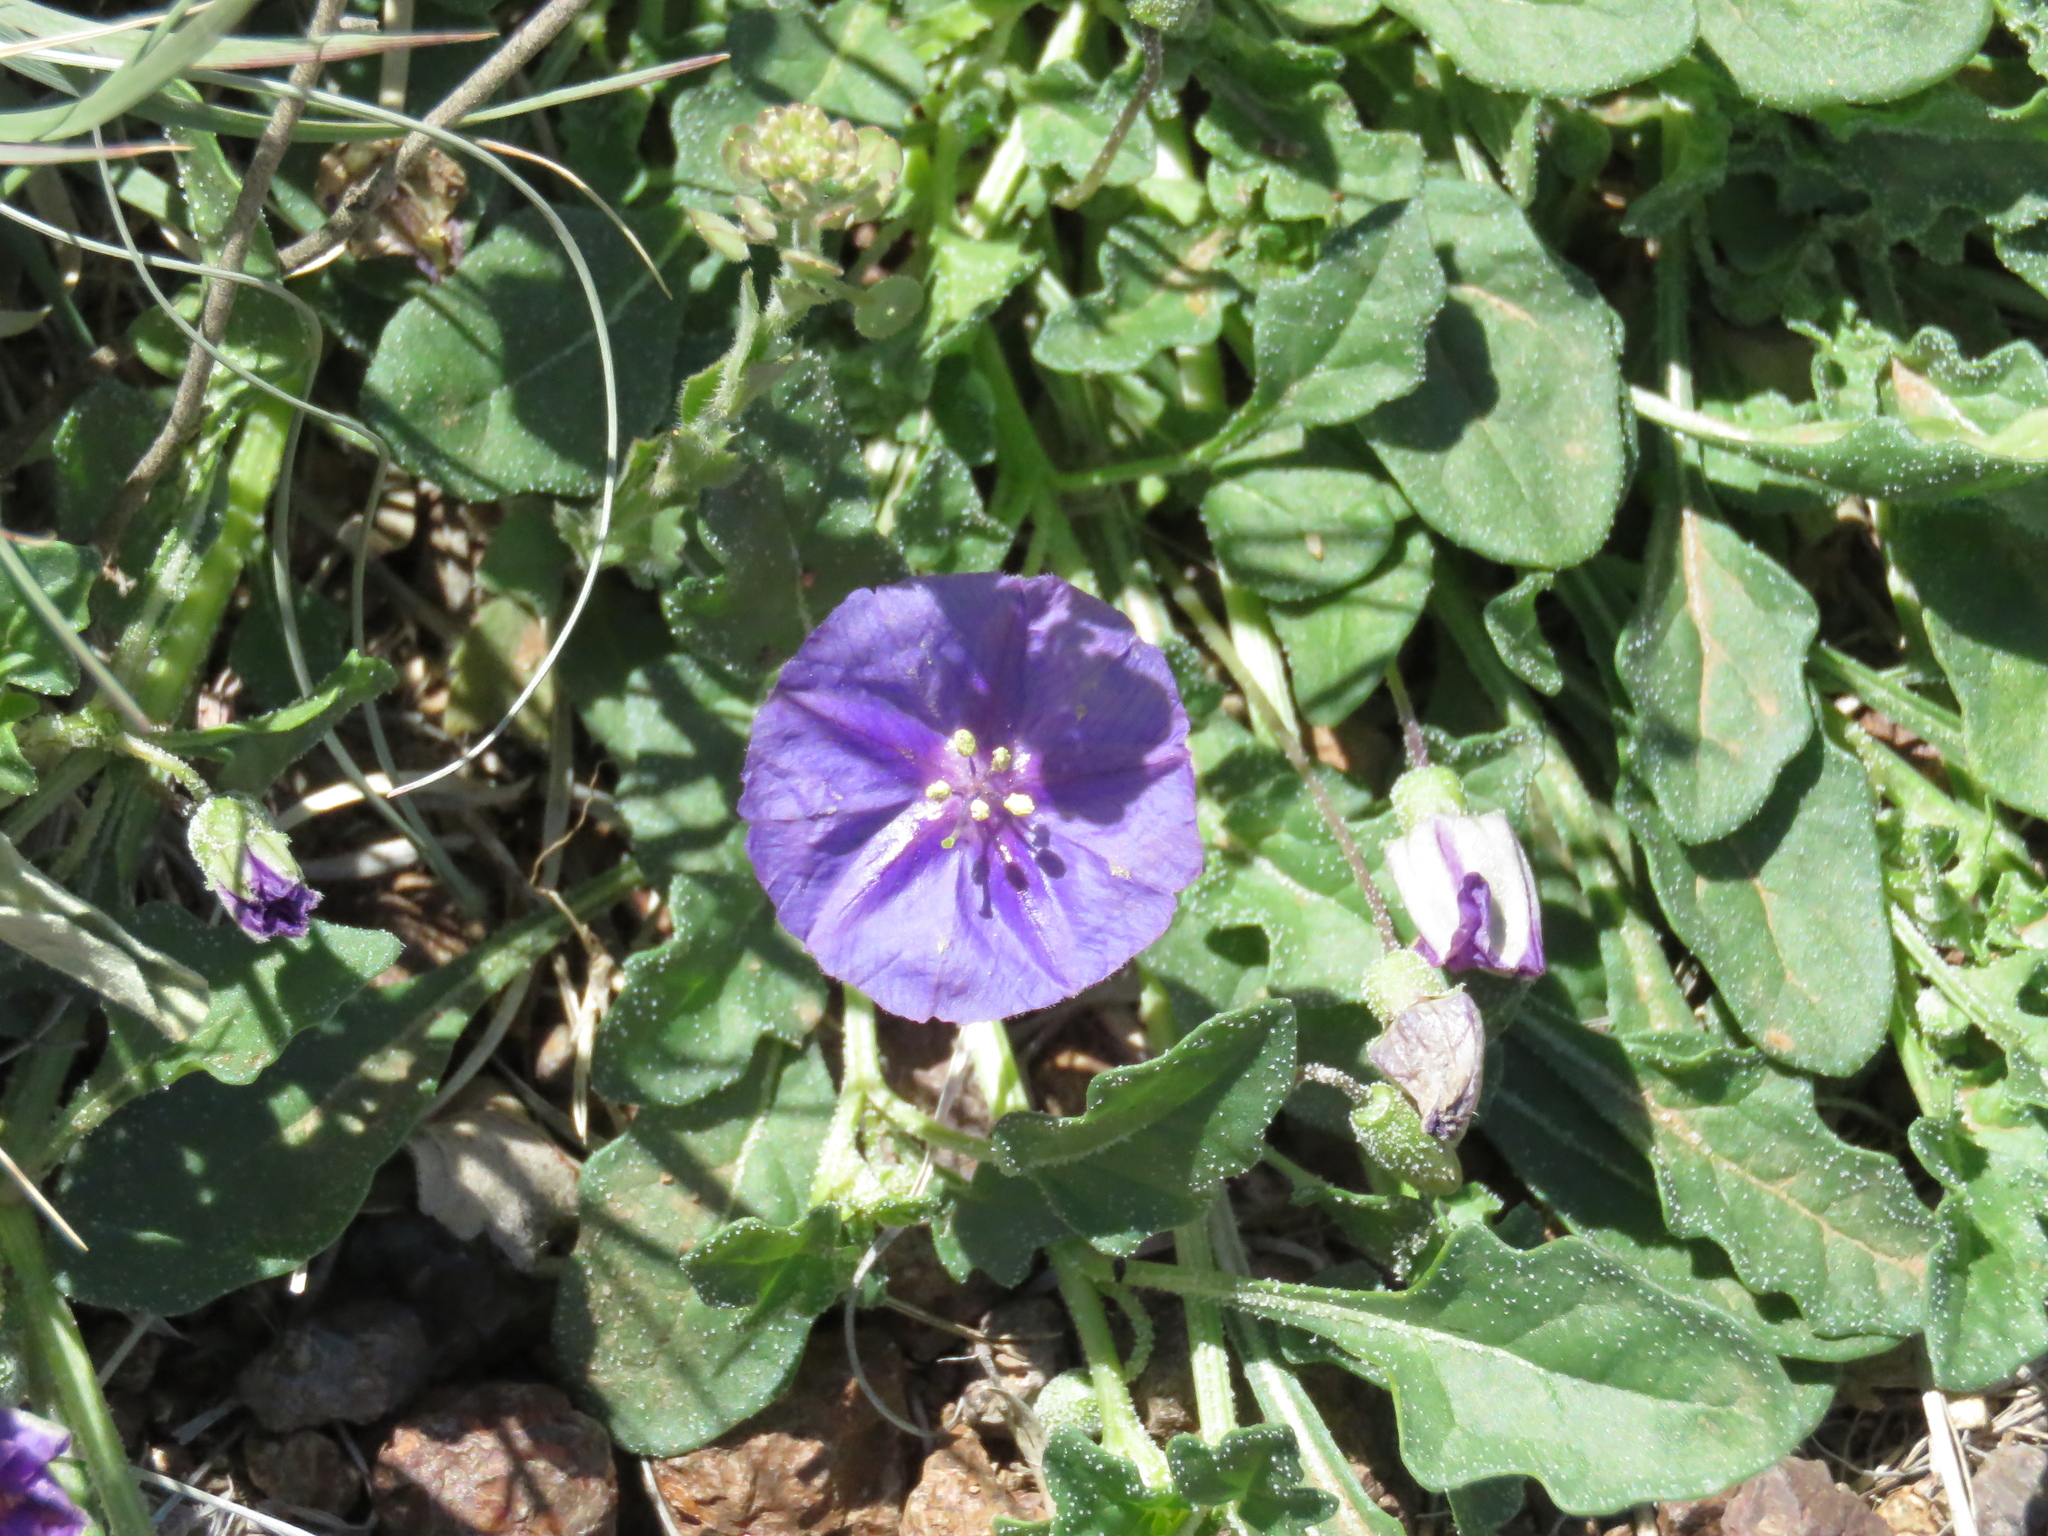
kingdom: Plantae
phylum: Tracheophyta
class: Magnoliopsida
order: Solanales
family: Solanaceae
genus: Quincula
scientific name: Quincula lobata
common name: Purple-ground-cherry
